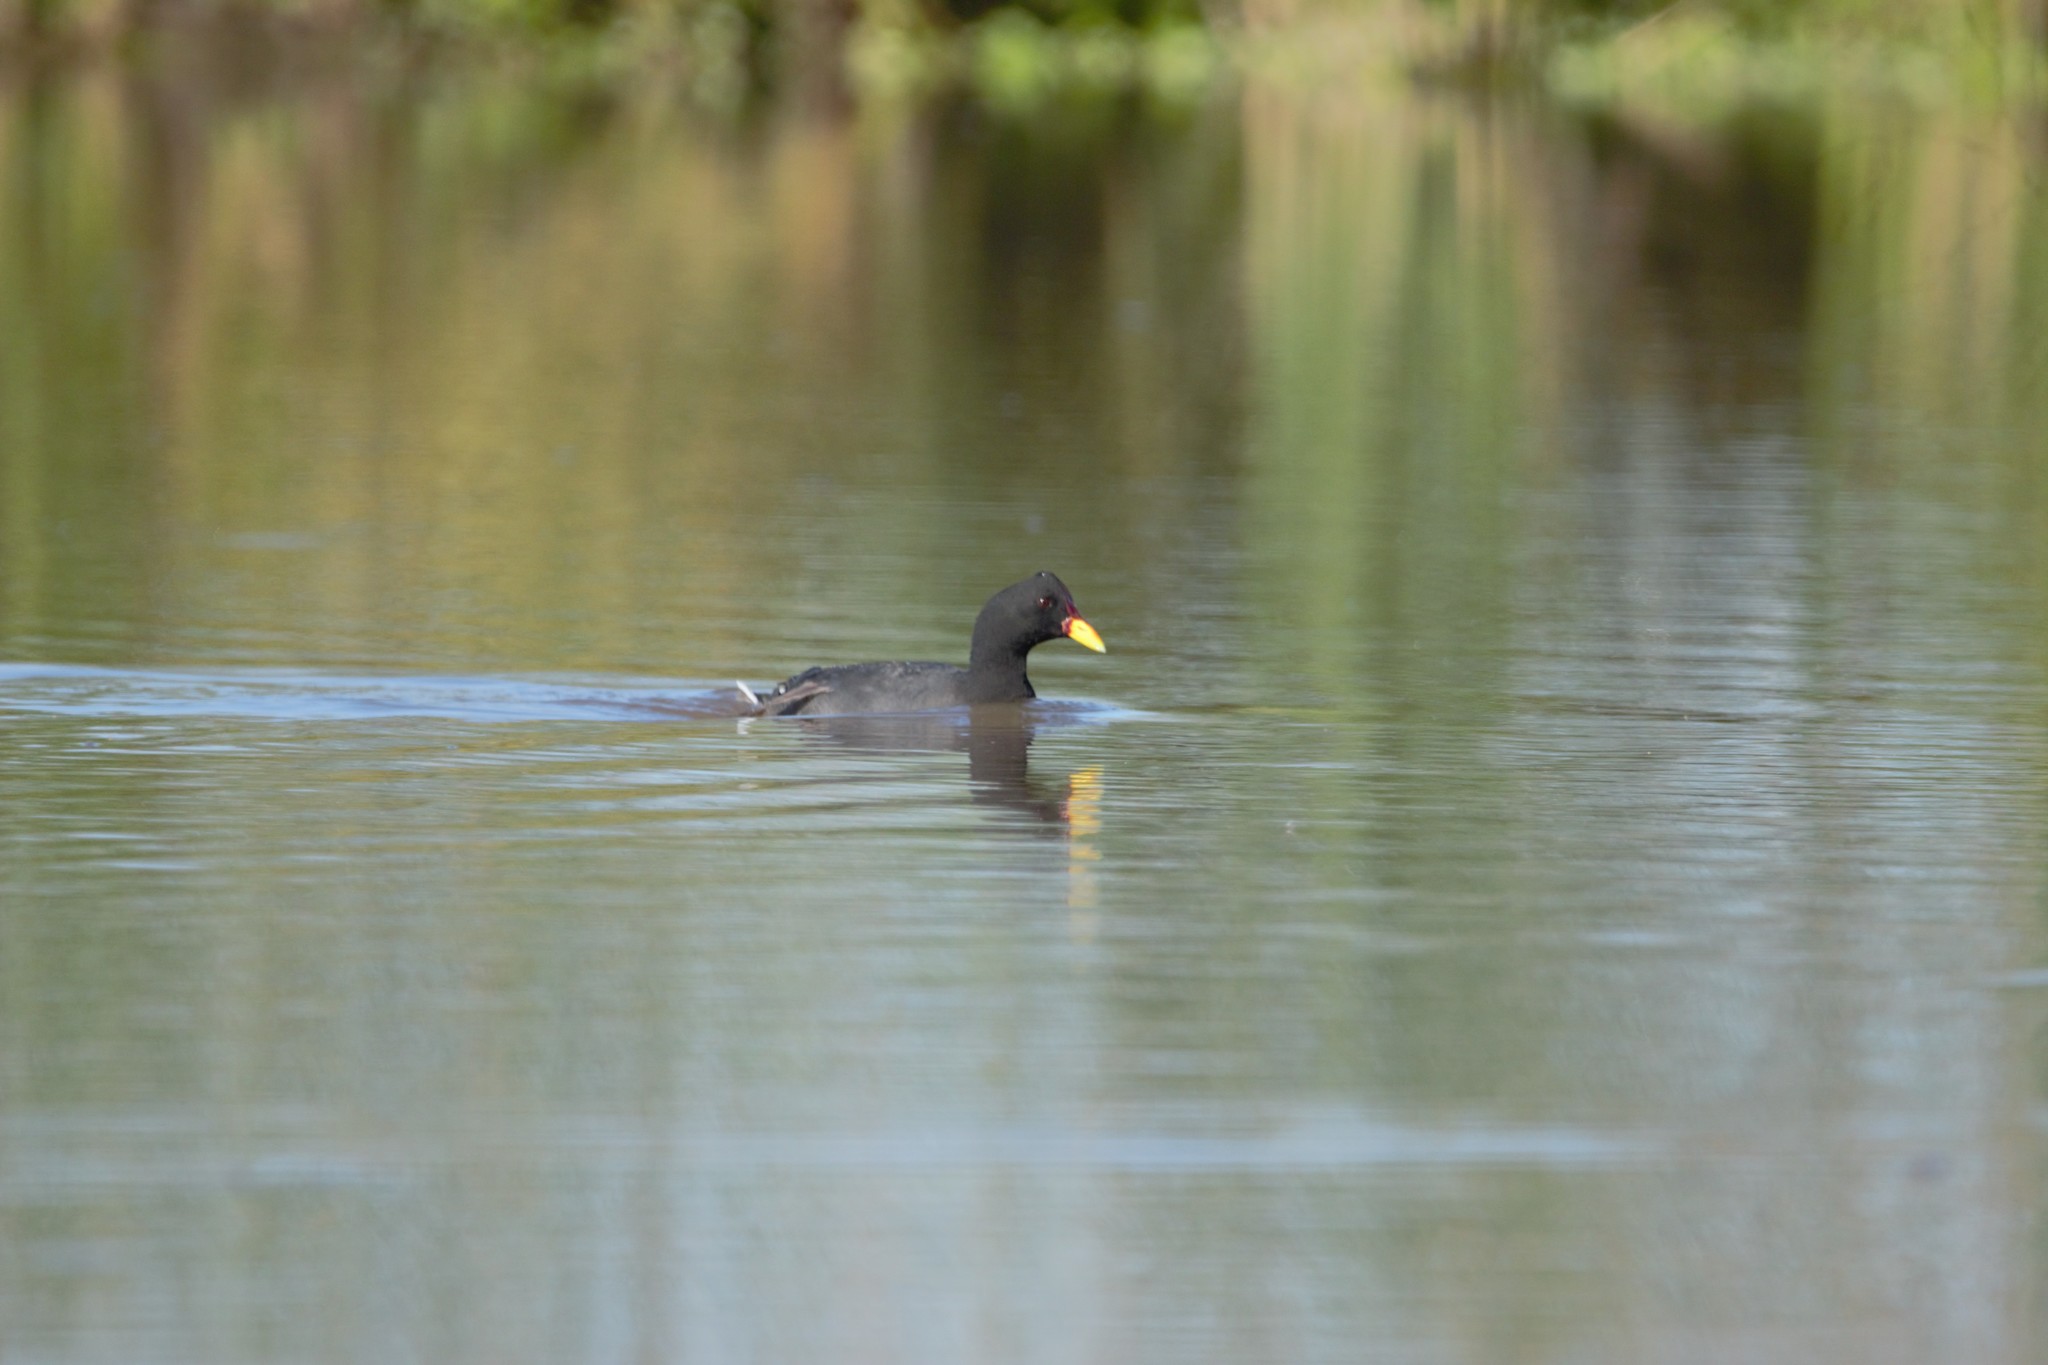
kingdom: Animalia
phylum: Chordata
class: Aves
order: Gruiformes
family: Rallidae
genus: Fulica
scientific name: Fulica rufifrons
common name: Red-fronted coot
